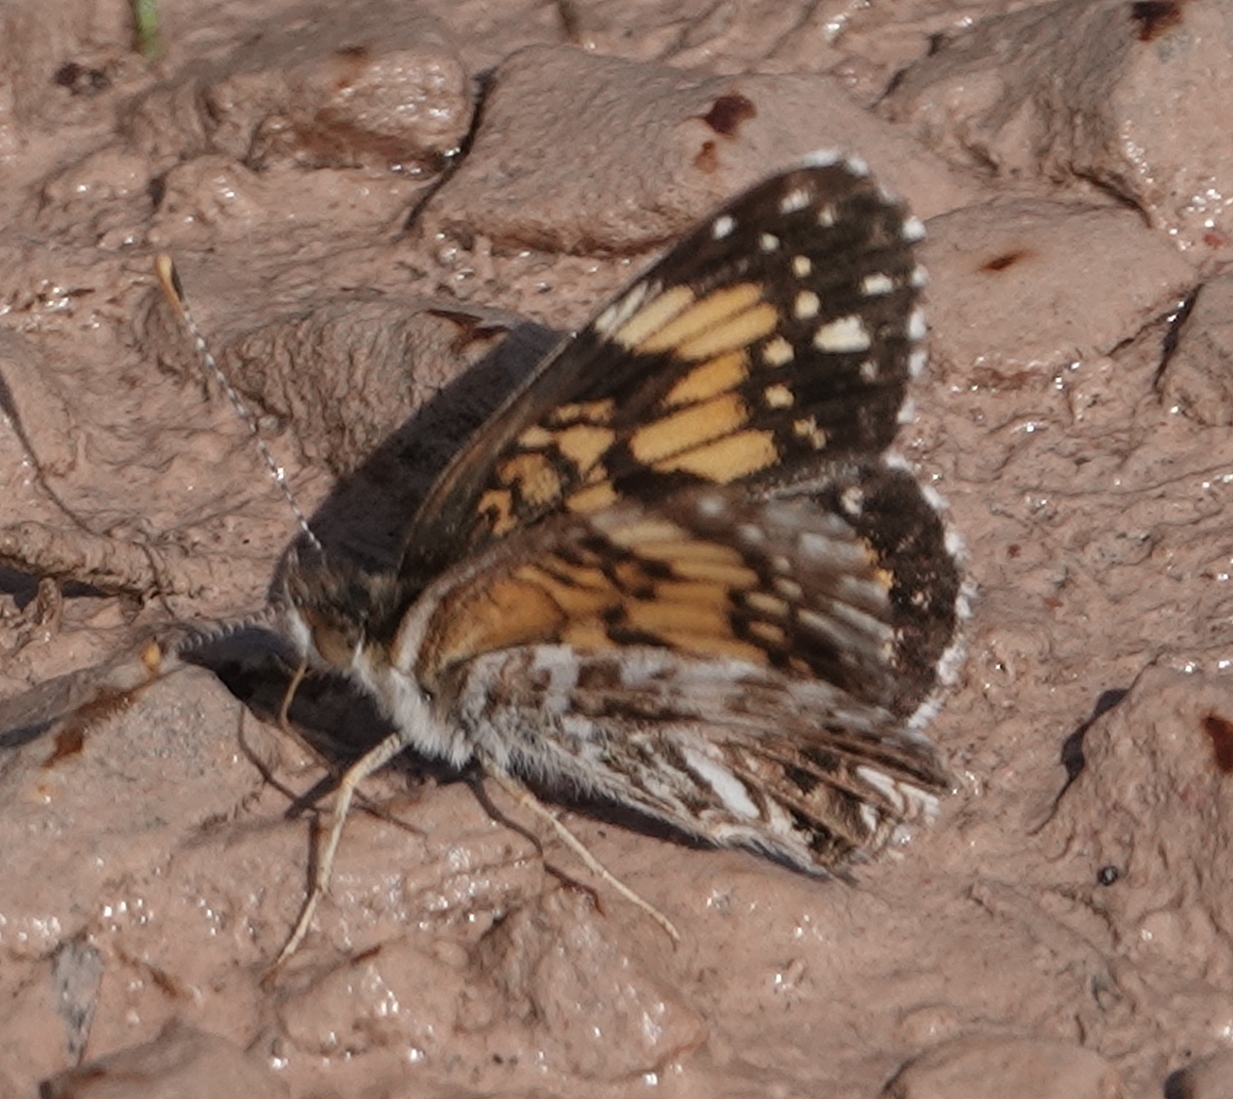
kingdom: Animalia
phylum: Arthropoda
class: Insecta
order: Lepidoptera
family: Nymphalidae
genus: Chlosyne
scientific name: Chlosyne gorgone
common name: Gorgone checkerspot
